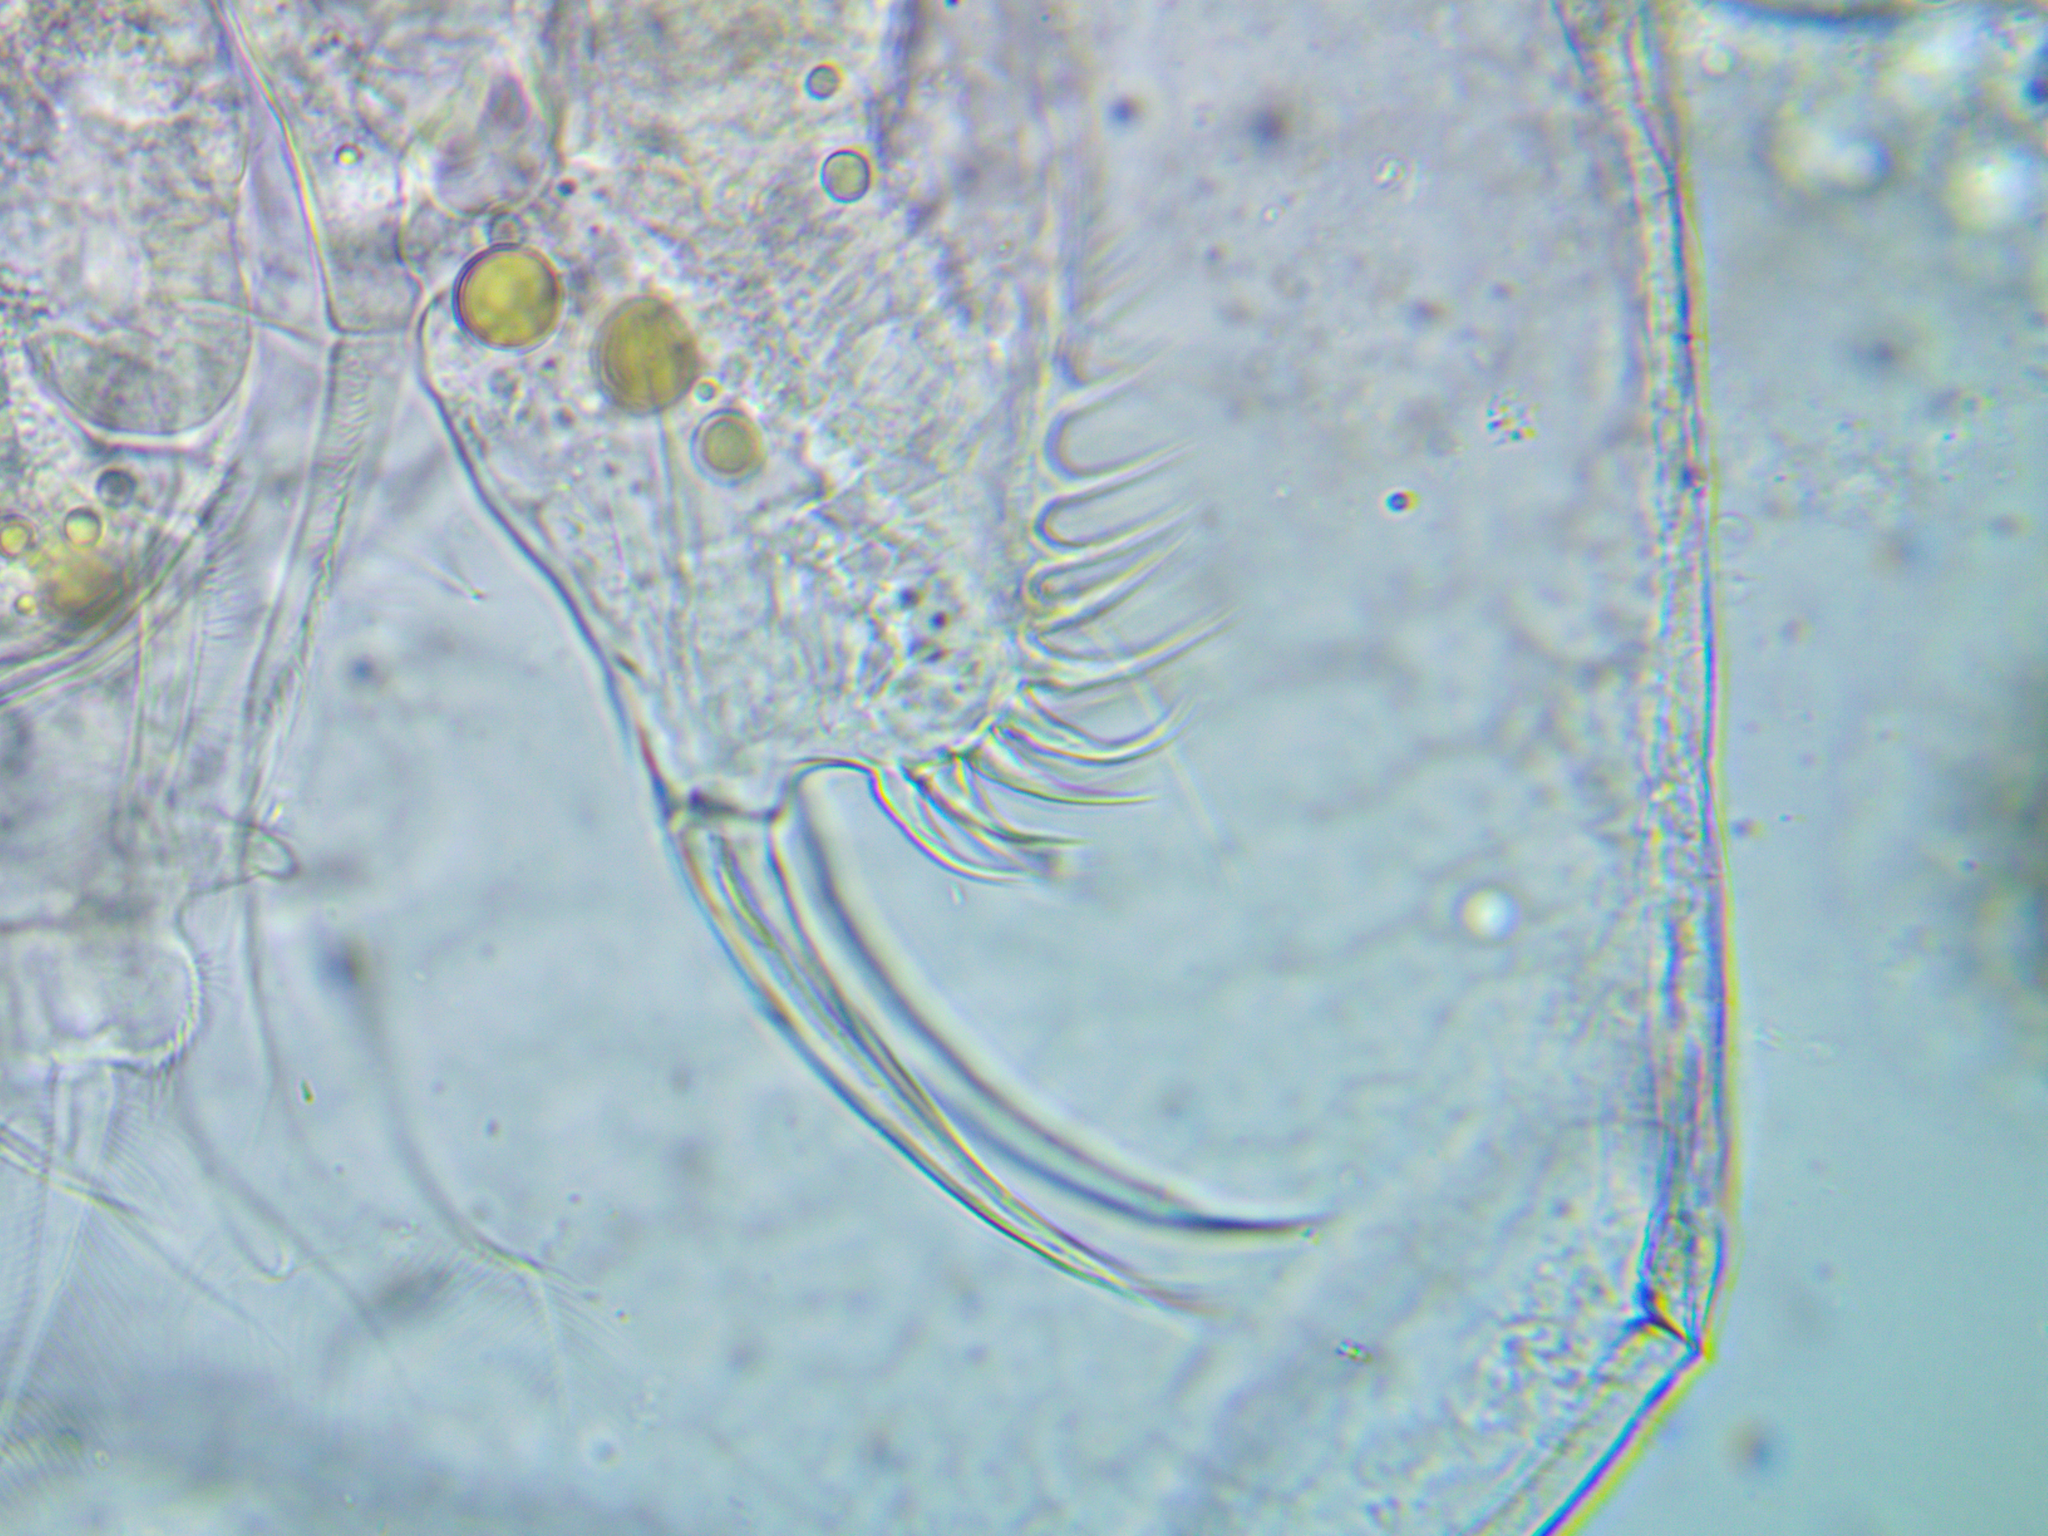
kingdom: Animalia
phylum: Arthropoda
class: Branchiopoda
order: Diplostraca
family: Daphniidae
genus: Ceriodaphnia
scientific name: Ceriodaphnia quadrangula
